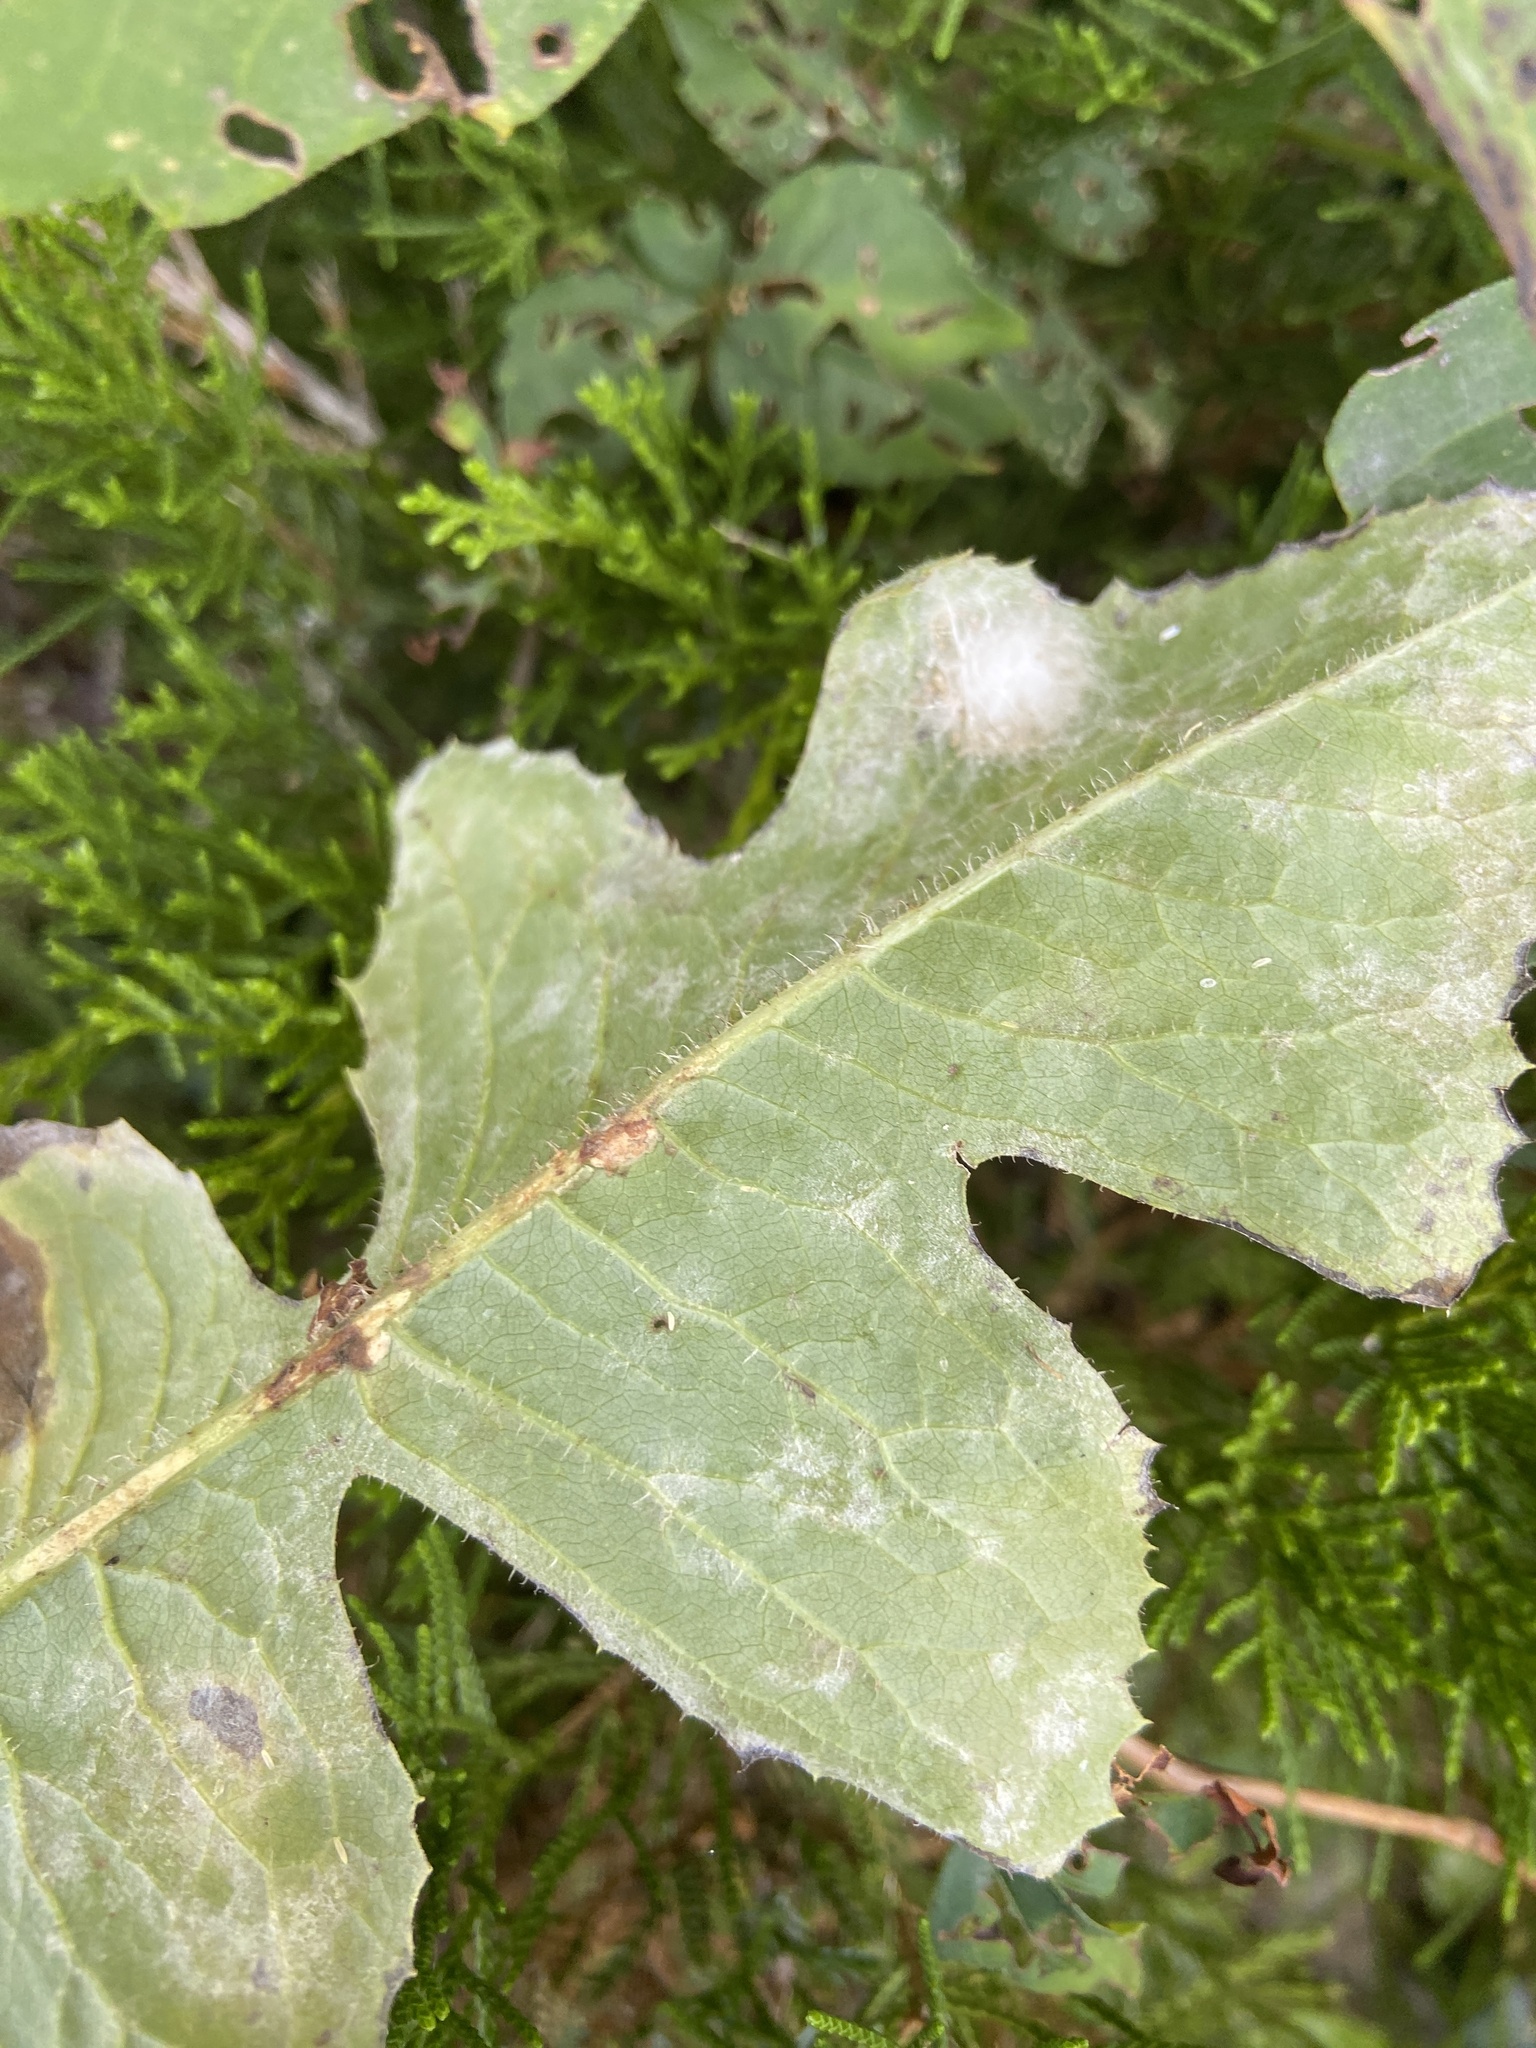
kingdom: Plantae
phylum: Tracheophyta
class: Magnoliopsida
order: Asterales
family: Asteraceae
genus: Lactuca
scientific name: Lactuca biennis
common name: Blue wood lettuce
